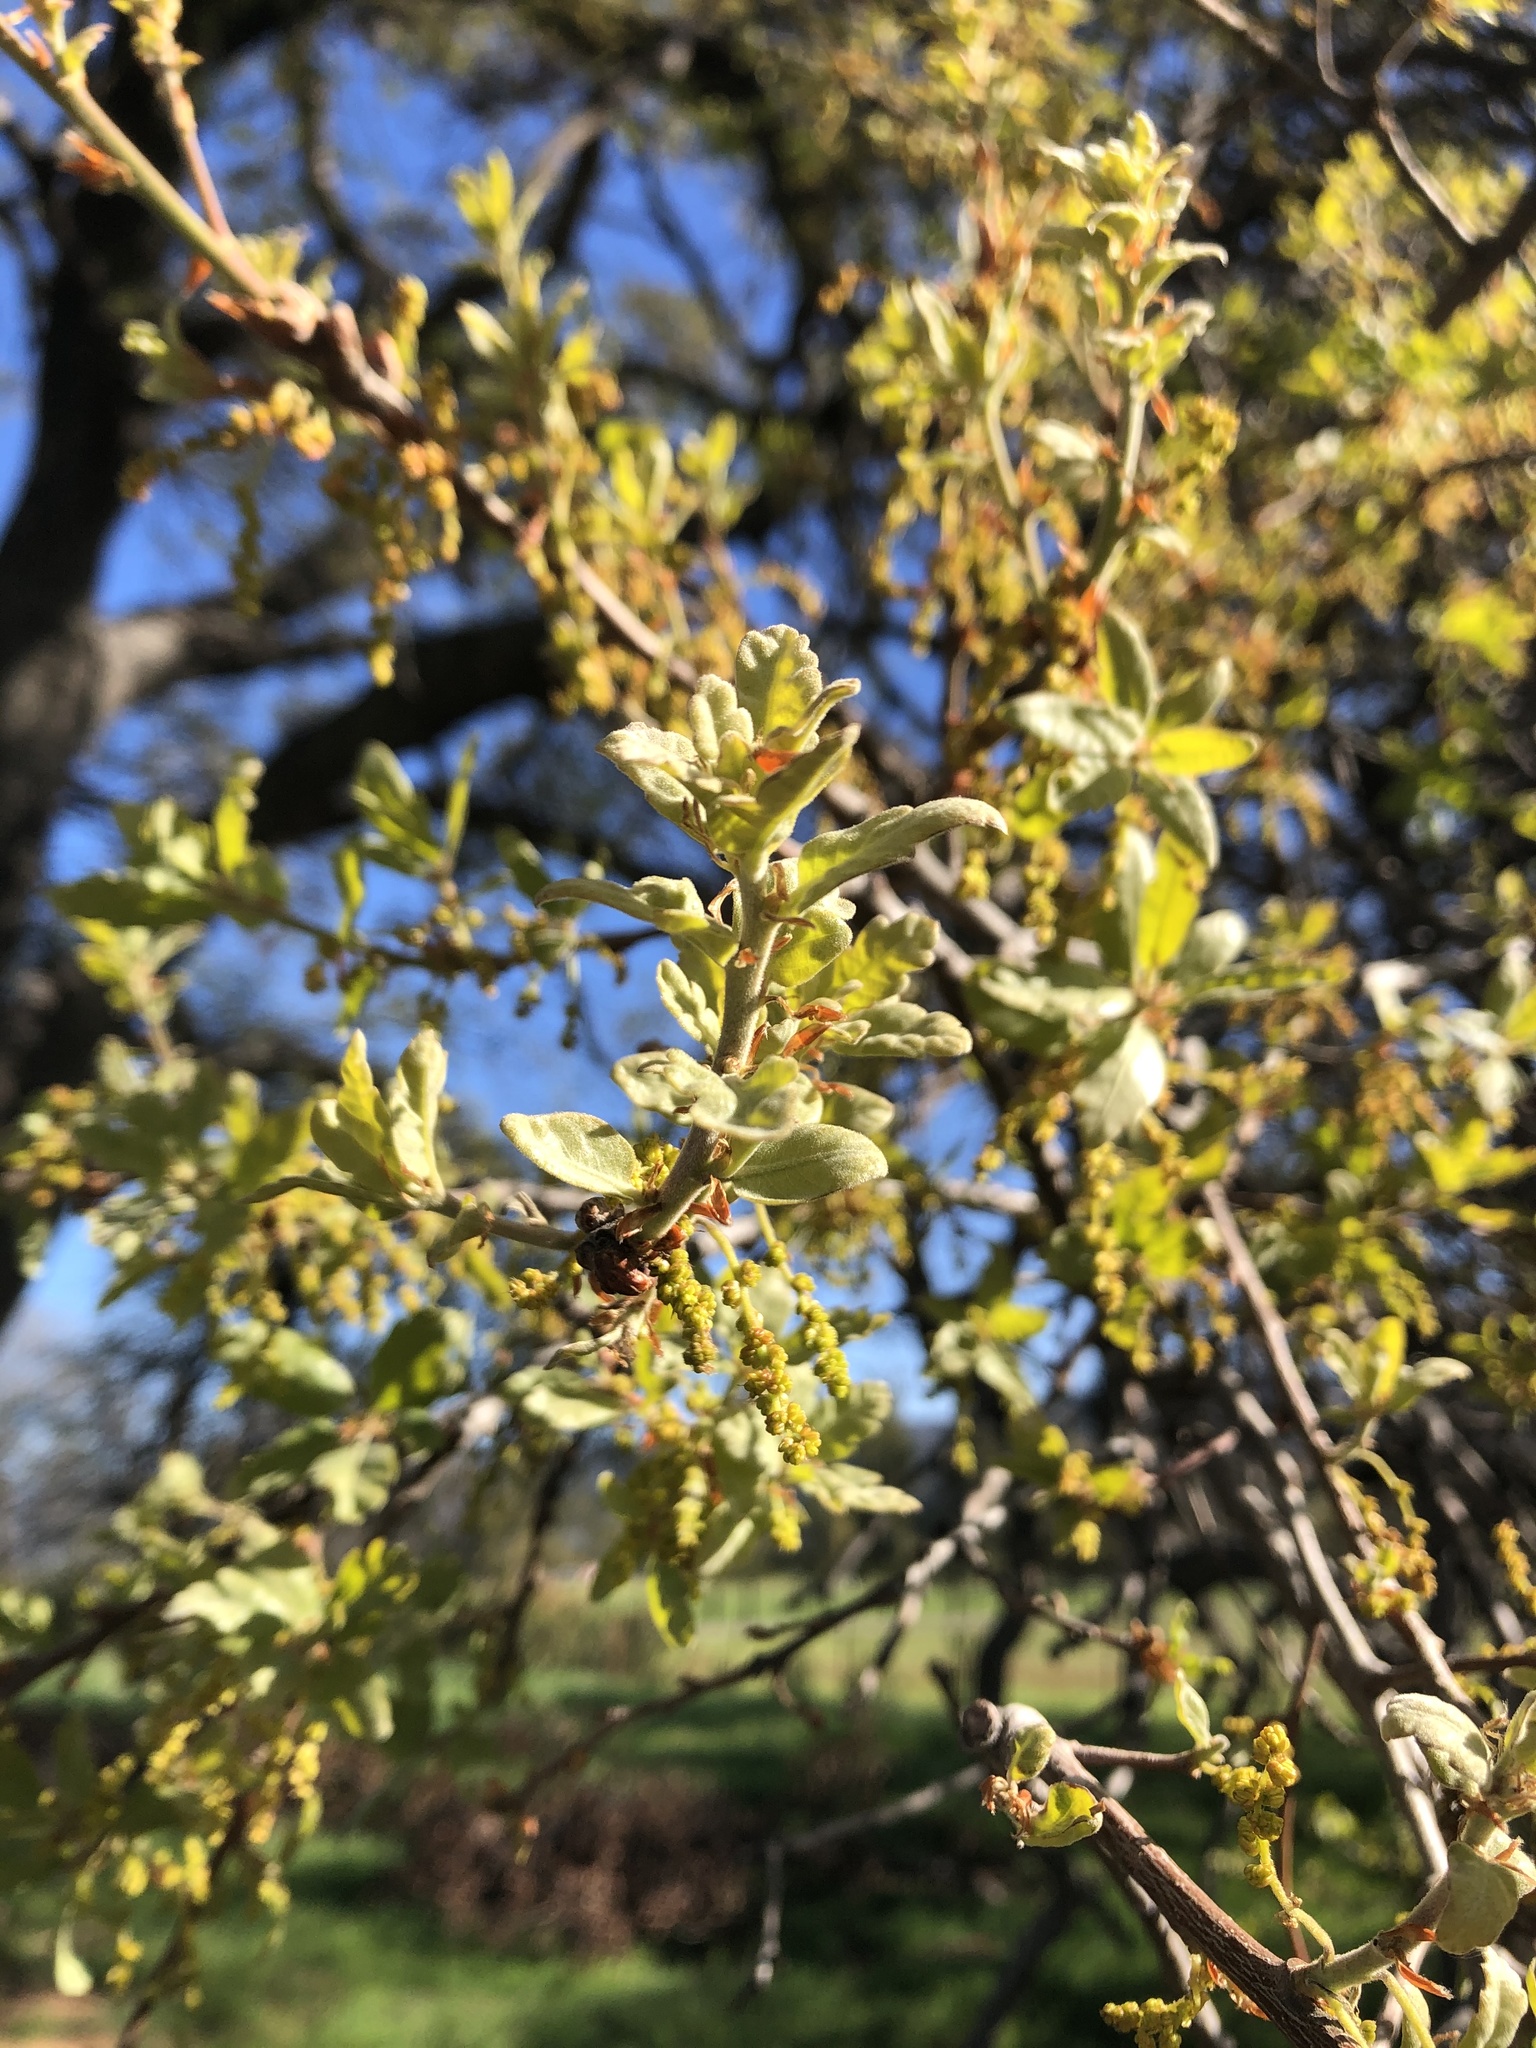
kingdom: Plantae
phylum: Tracheophyta
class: Magnoliopsida
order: Fagales
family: Fagaceae
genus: Quercus
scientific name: Quercus douglasii
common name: Blue oak
